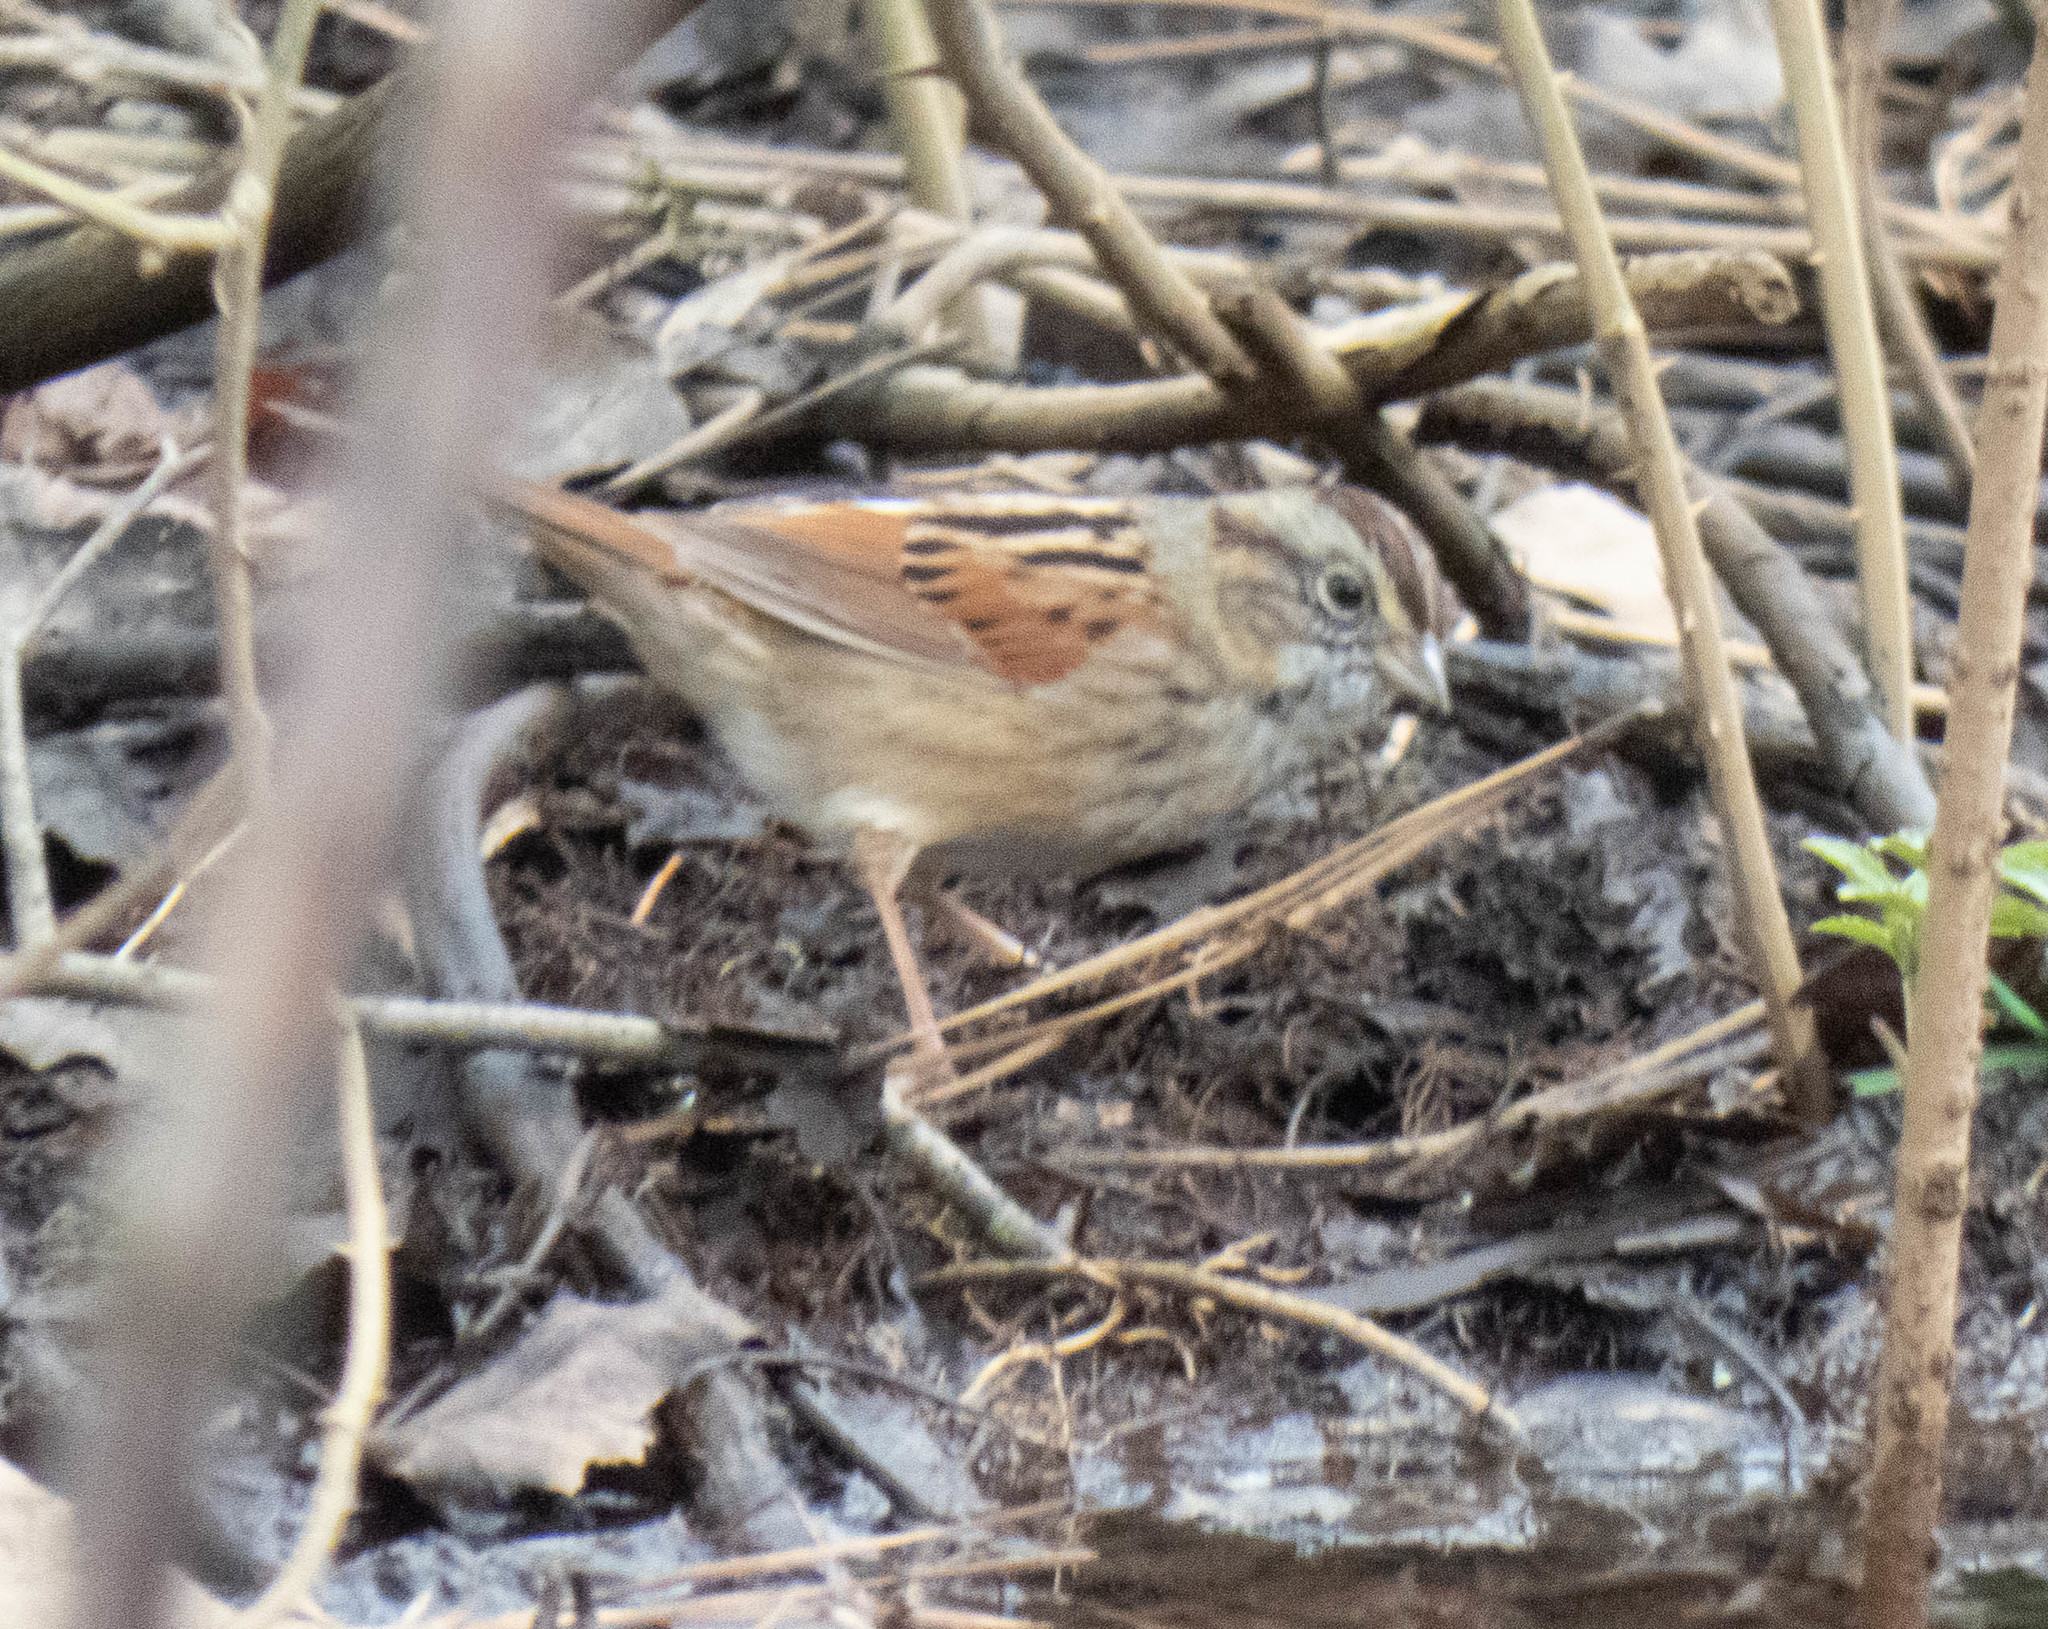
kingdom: Animalia
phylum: Chordata
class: Aves
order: Passeriformes
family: Passerellidae
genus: Melospiza
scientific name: Melospiza georgiana
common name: Swamp sparrow
